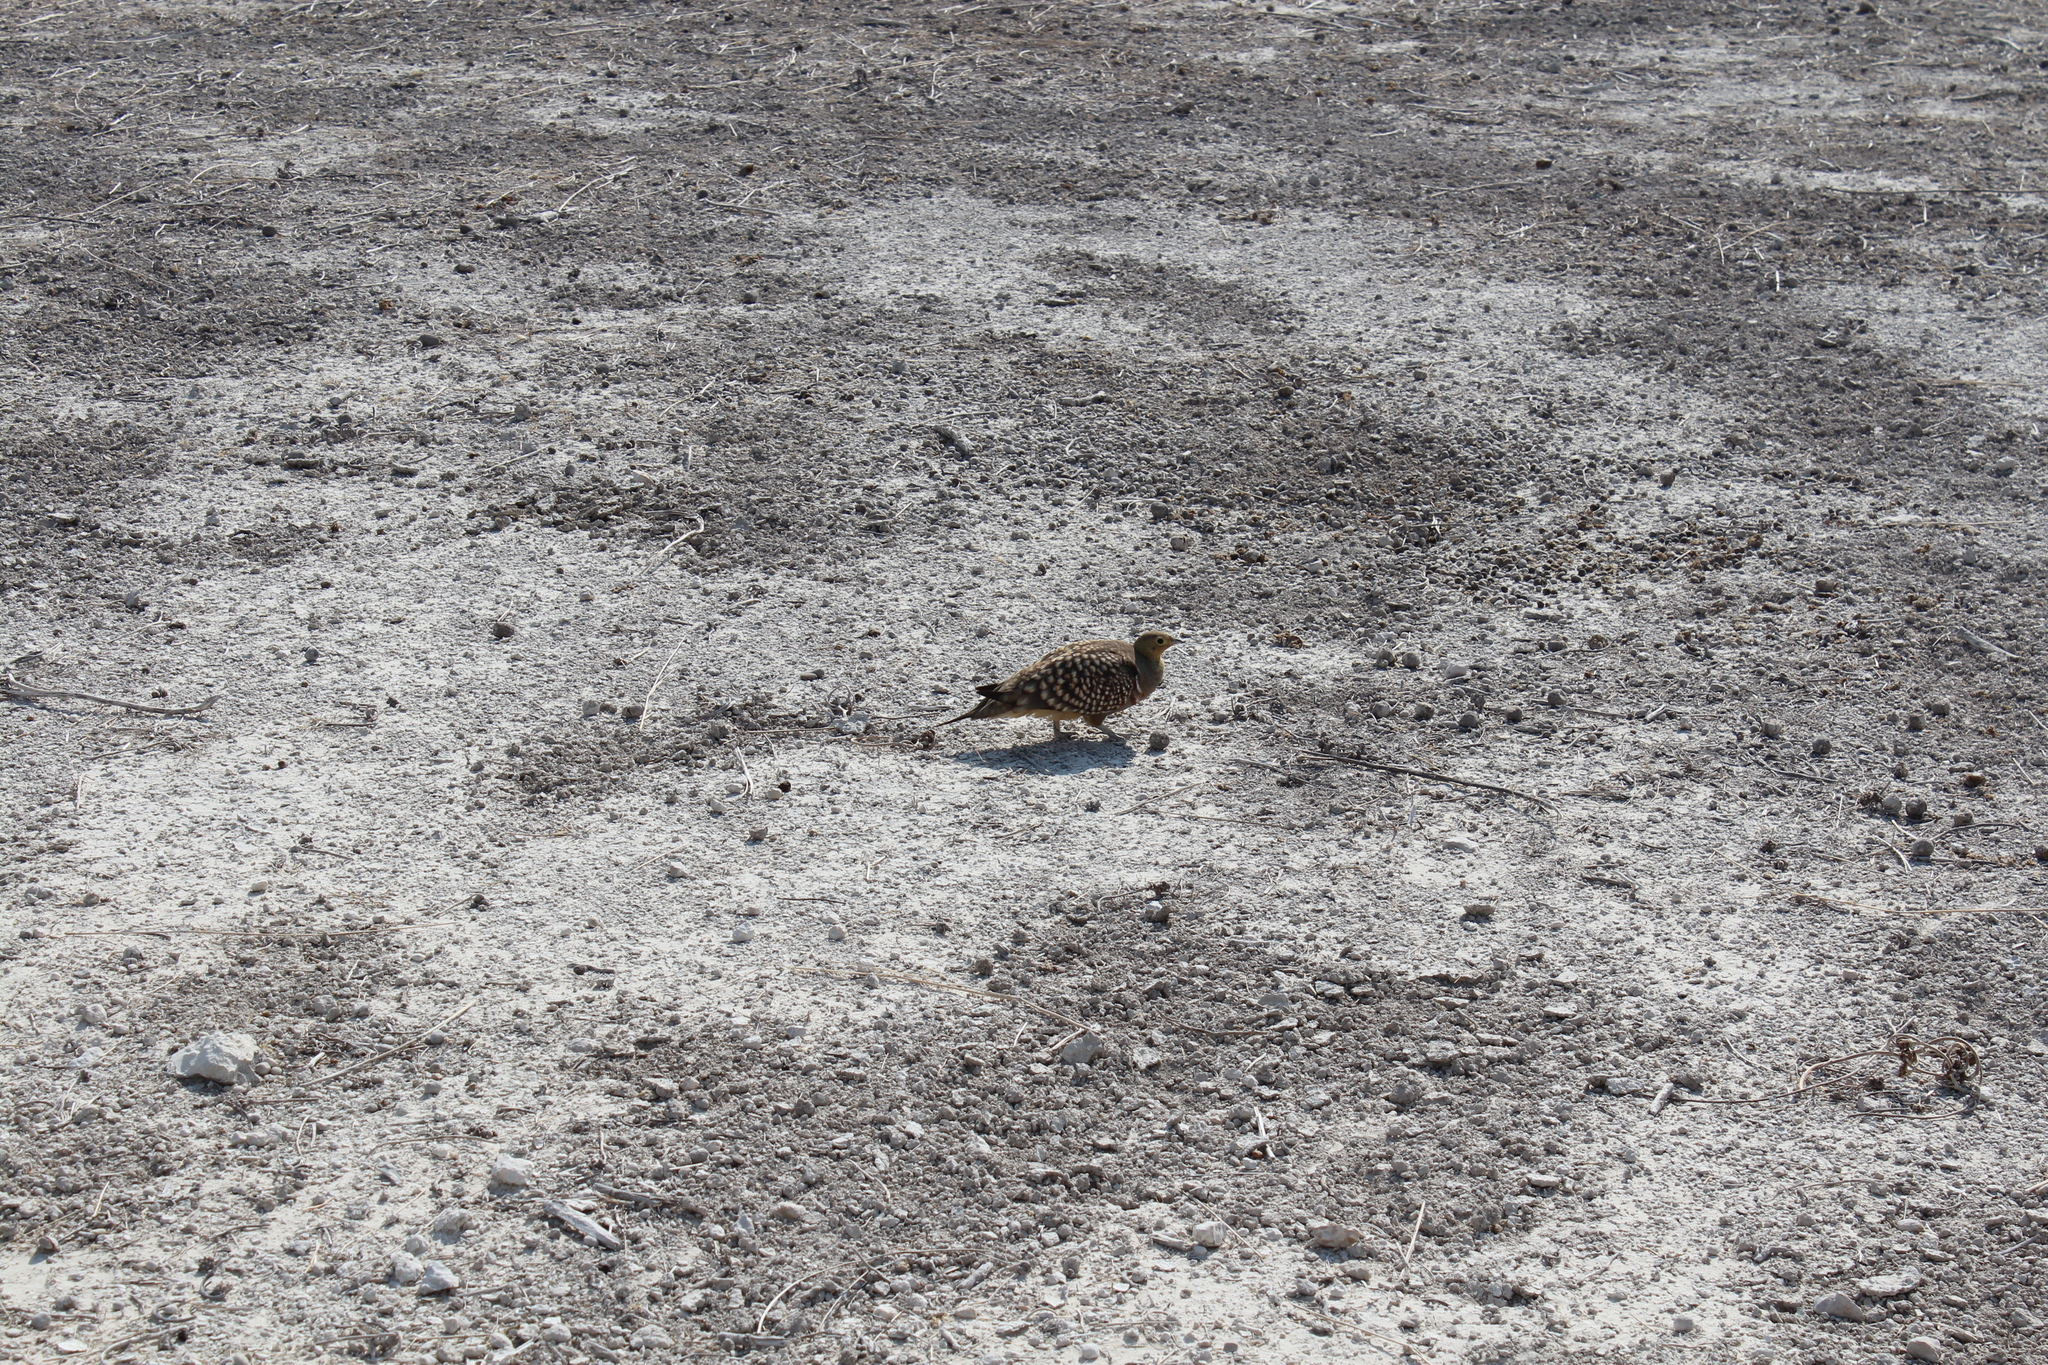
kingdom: Animalia
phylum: Chordata
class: Aves
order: Pteroclidiformes
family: Pteroclididae
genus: Pterocles
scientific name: Pterocles namaqua
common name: Namaqua sandgrouse
